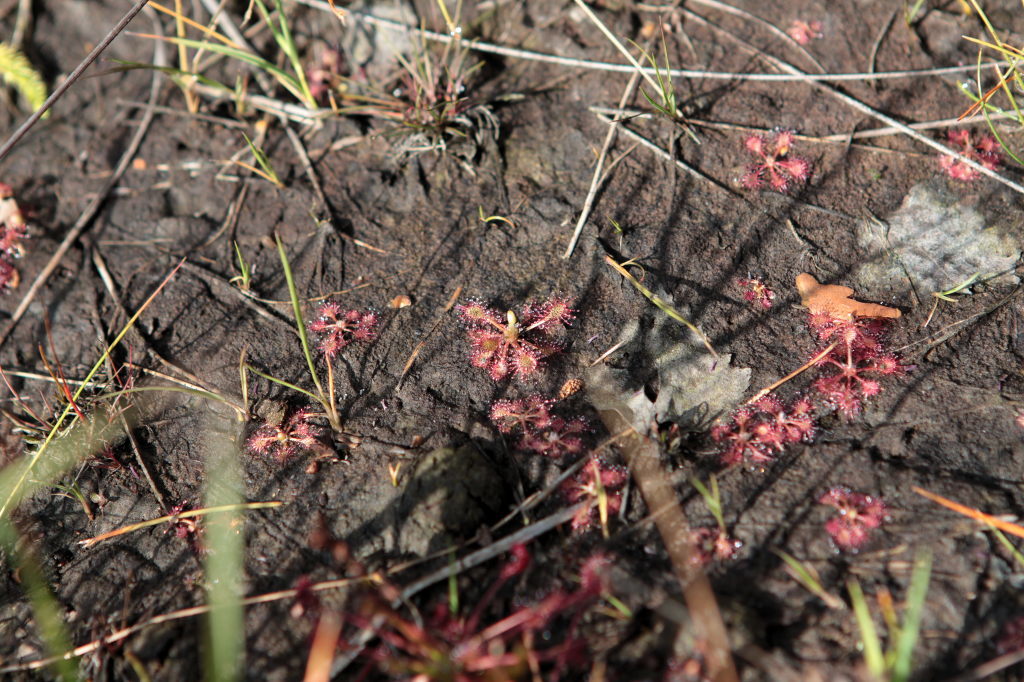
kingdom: Plantae
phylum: Tracheophyta
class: Magnoliopsida
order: Caryophyllales
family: Droseraceae
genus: Drosera
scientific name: Drosera intermedia
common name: Oblong-leaved sundew
